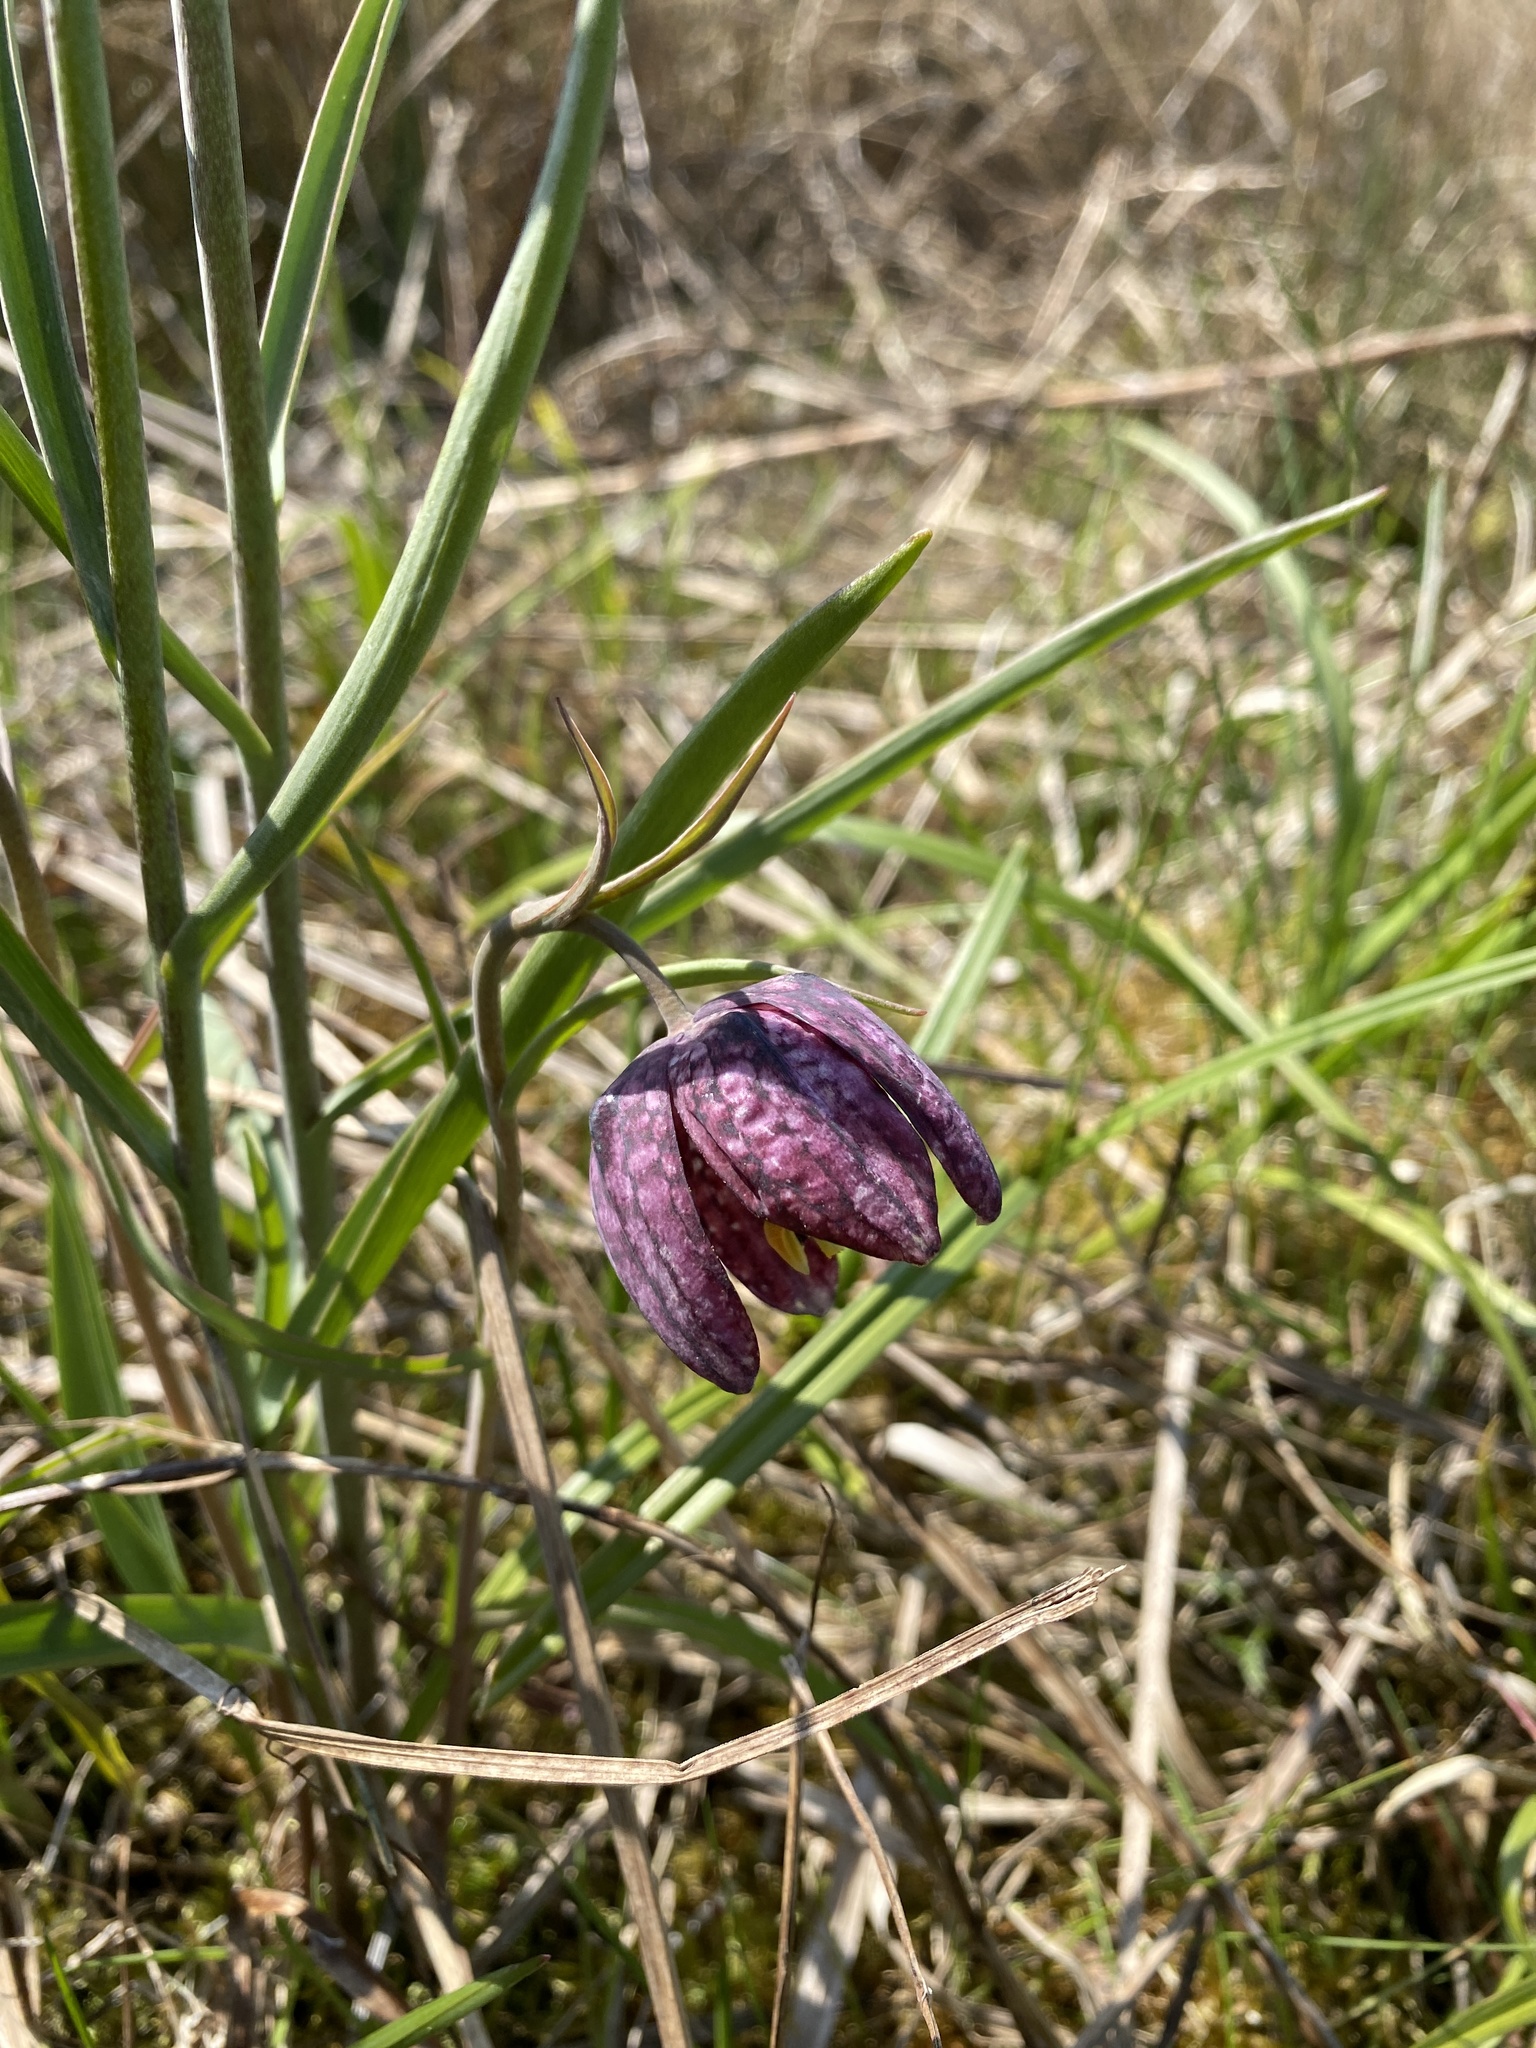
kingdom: Plantae
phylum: Tracheophyta
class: Liliopsida
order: Liliales
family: Liliaceae
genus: Fritillaria
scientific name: Fritillaria meleagris
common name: Fritillary
